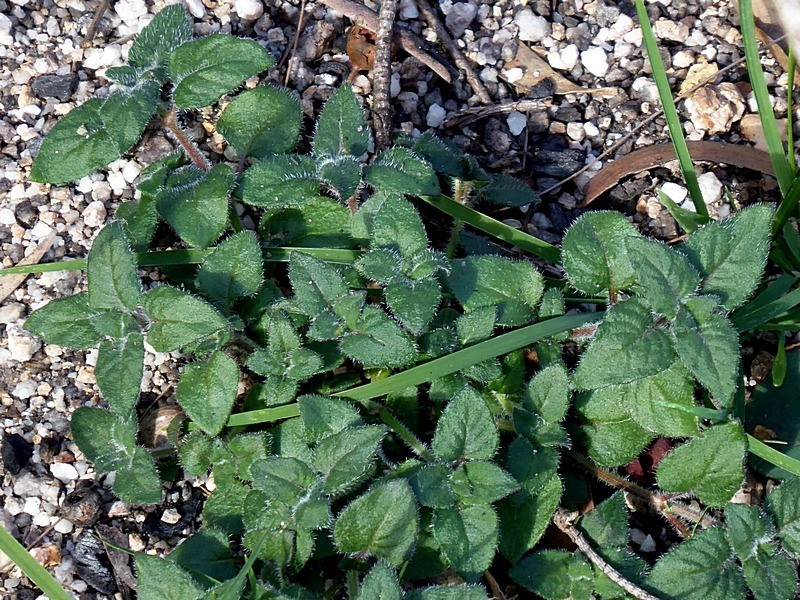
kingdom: Plantae
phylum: Tracheophyta
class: Magnoliopsida
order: Gentianales
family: Rubiaceae
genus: Opercularia
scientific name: Opercularia hispida
